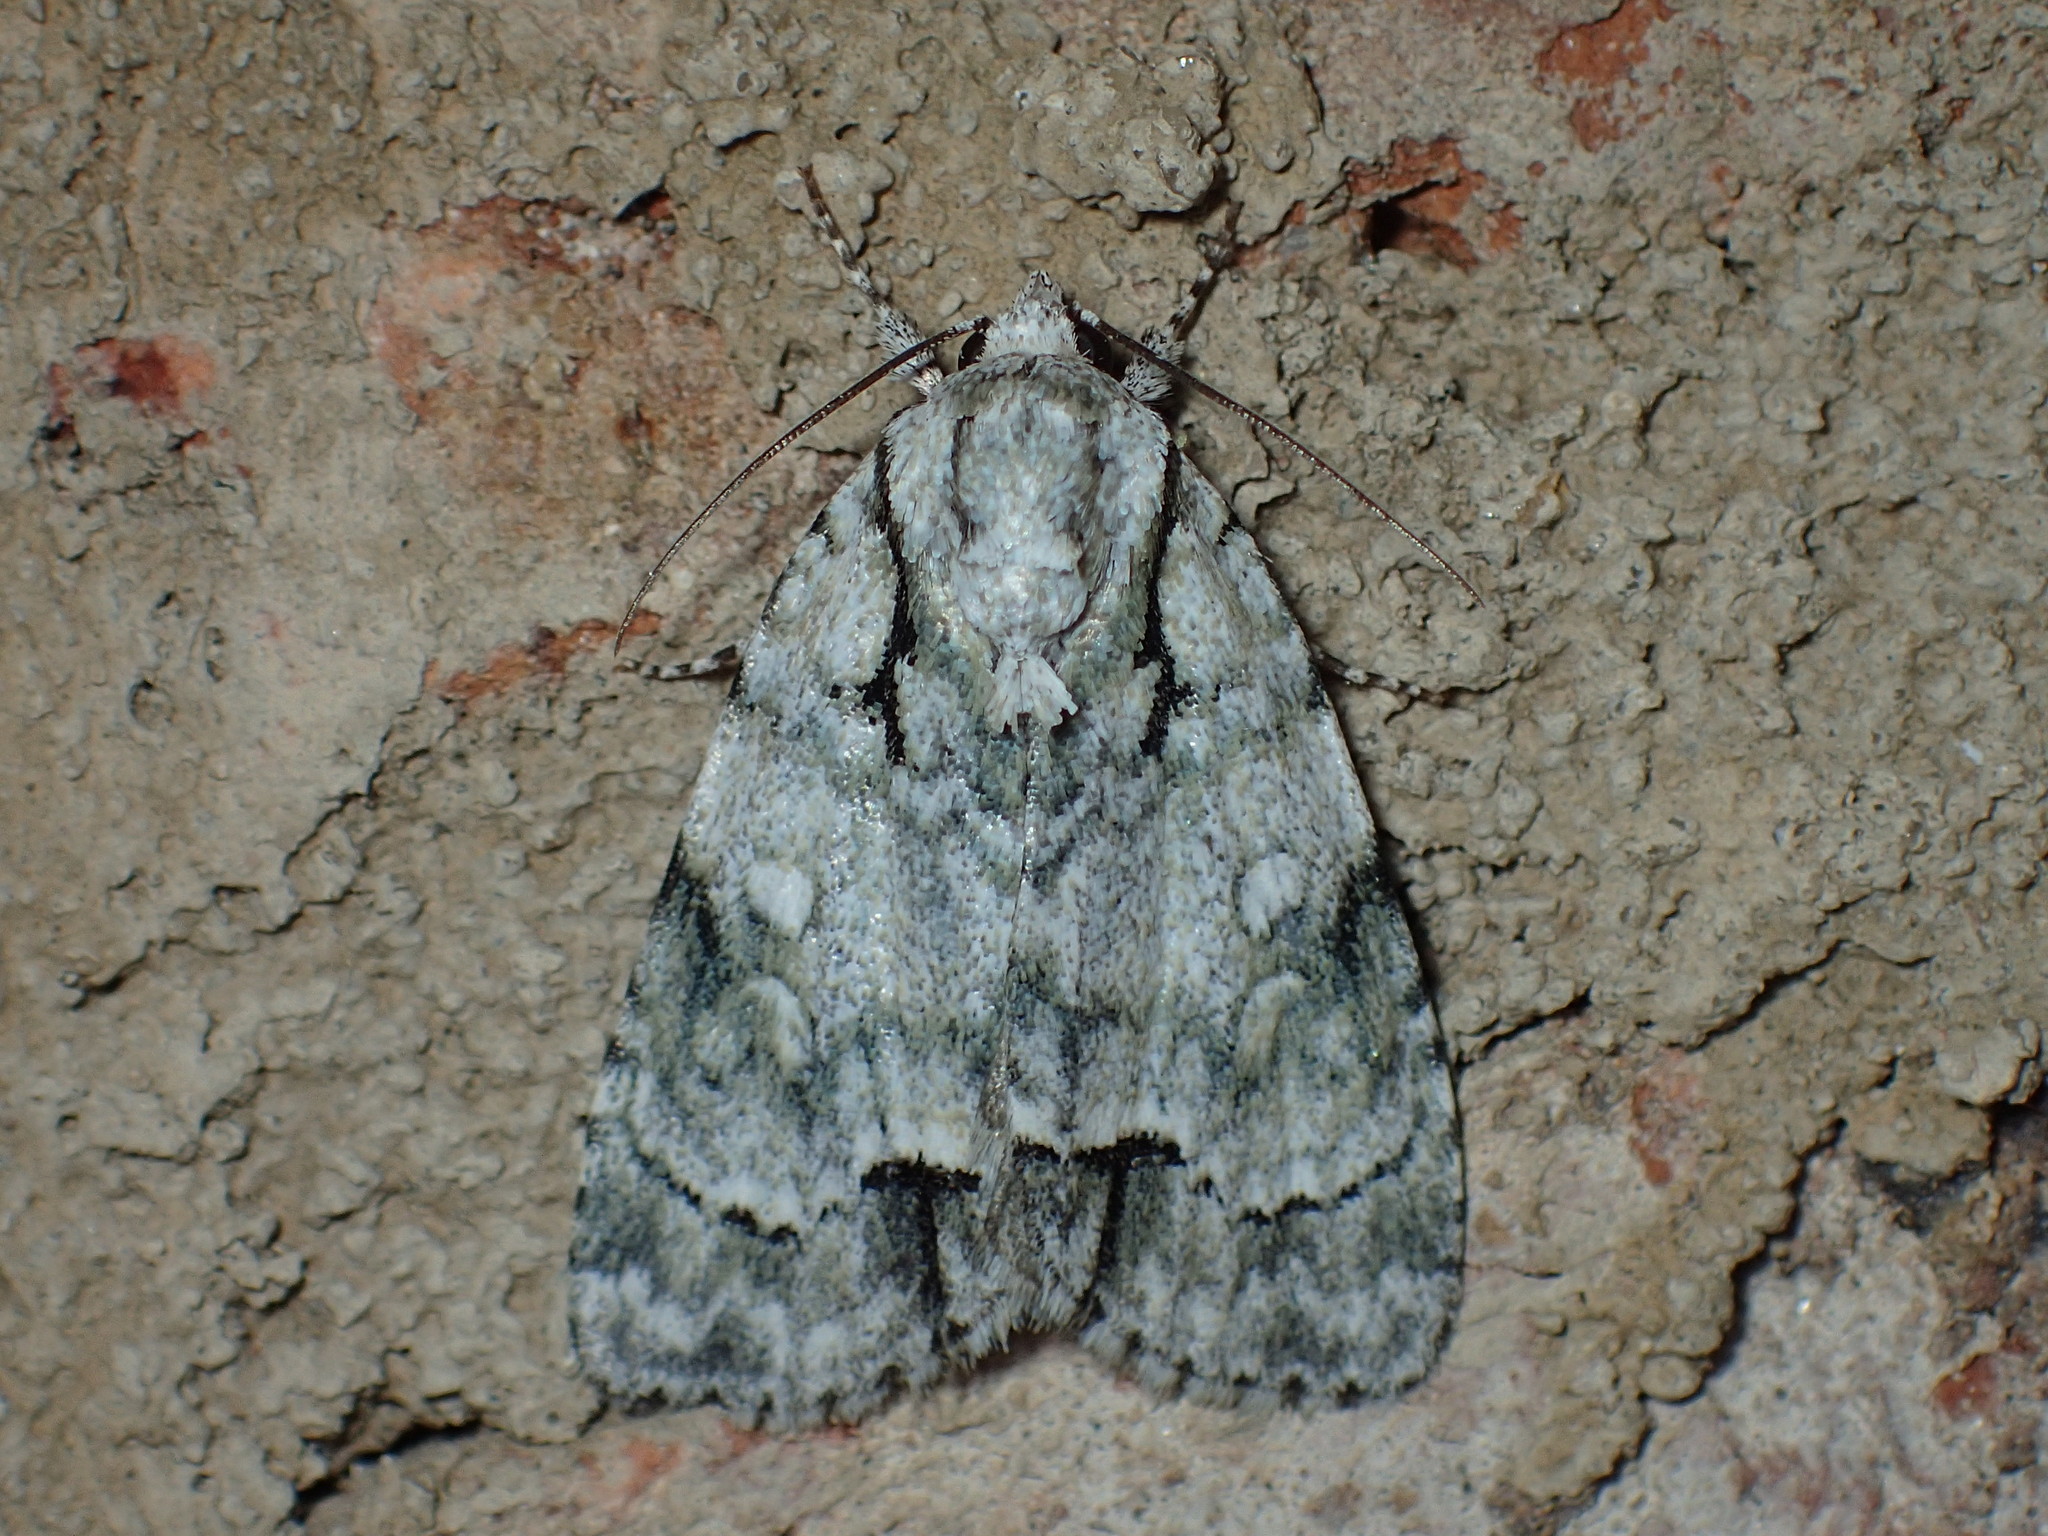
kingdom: Animalia
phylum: Arthropoda
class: Insecta
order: Lepidoptera
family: Noctuidae
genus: Acronicta
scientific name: Acronicta vinnula
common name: Delightful dagger
